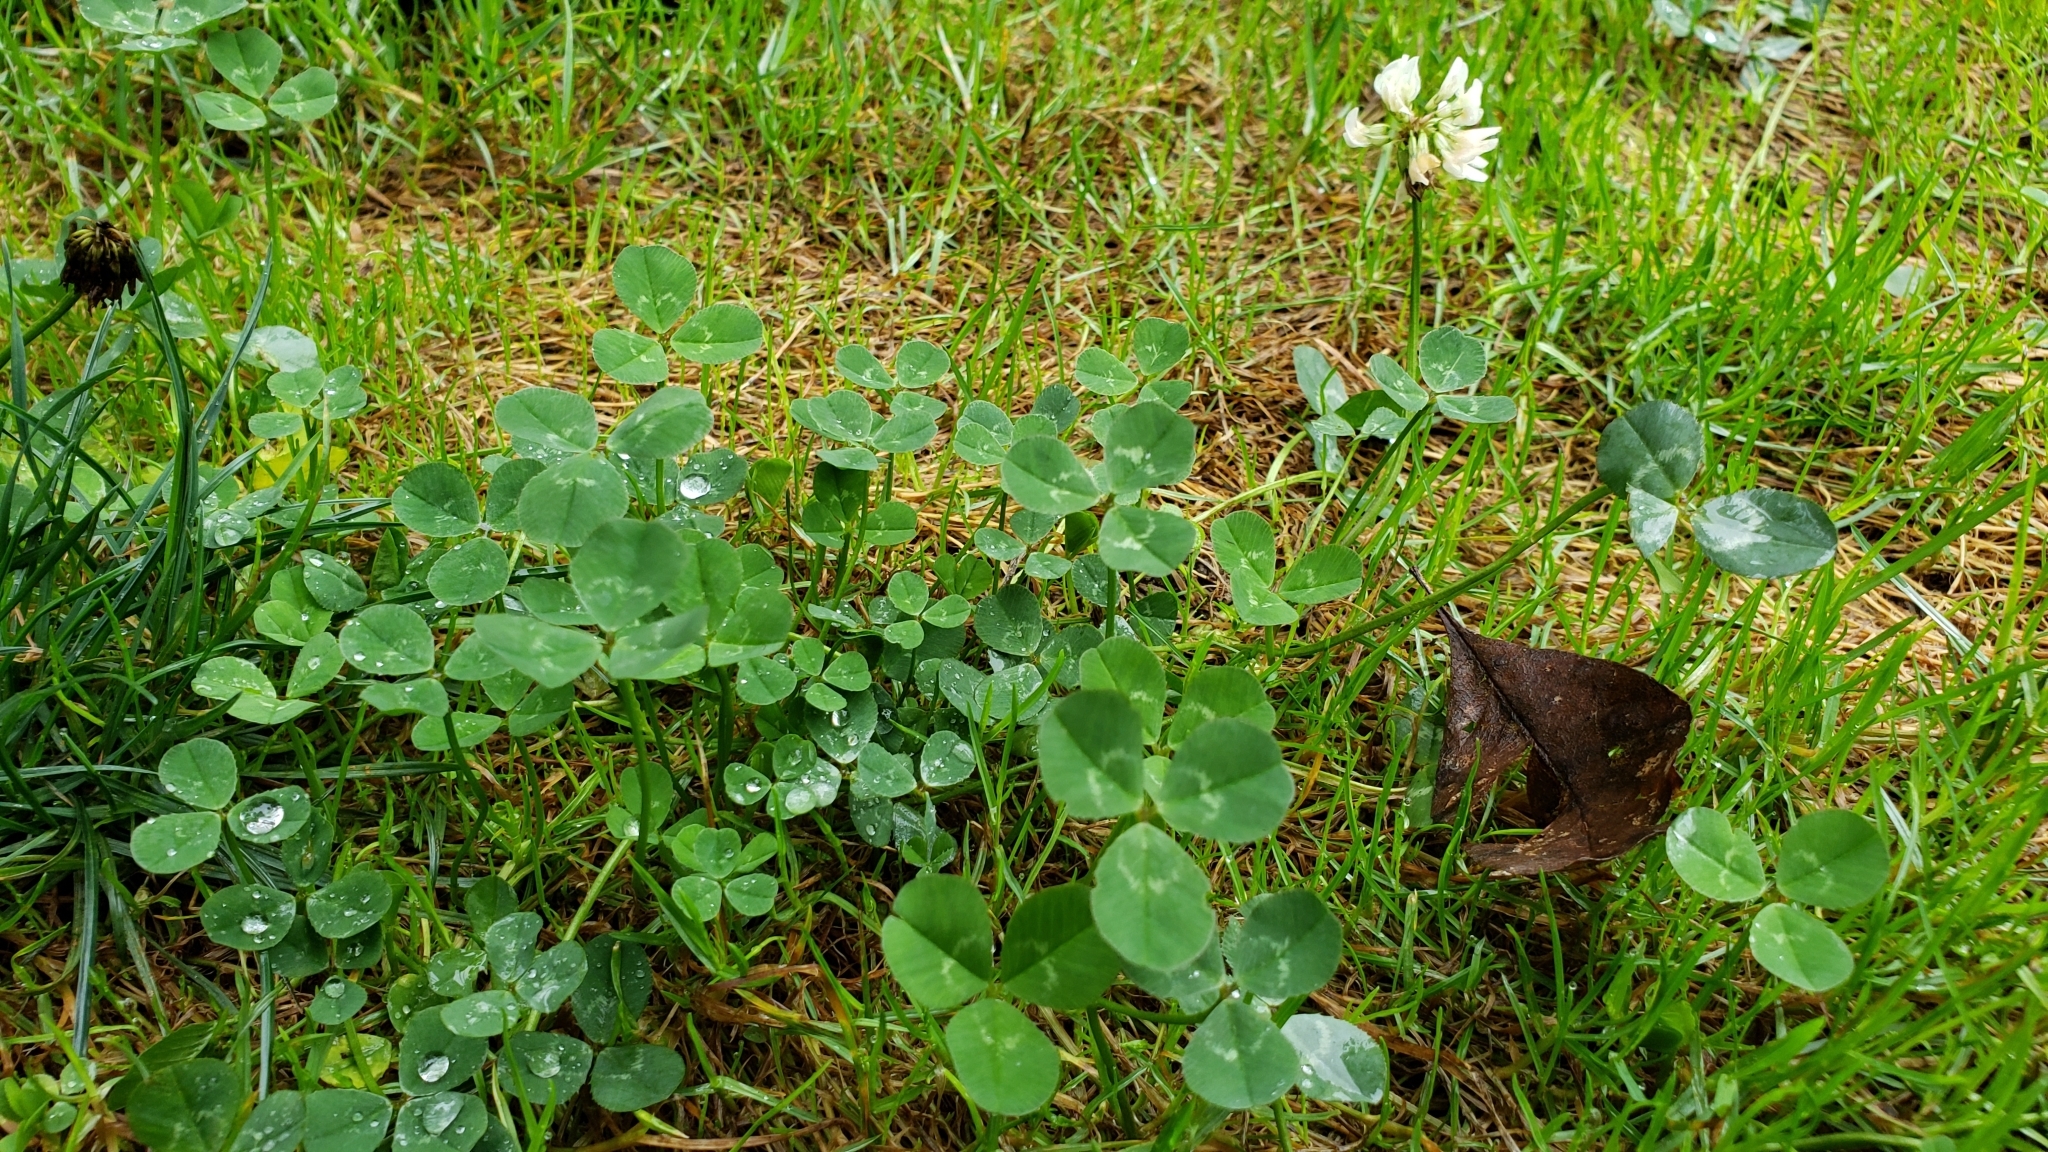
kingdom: Plantae
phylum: Tracheophyta
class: Magnoliopsida
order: Fabales
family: Fabaceae
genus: Trifolium
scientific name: Trifolium repens
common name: White clover
